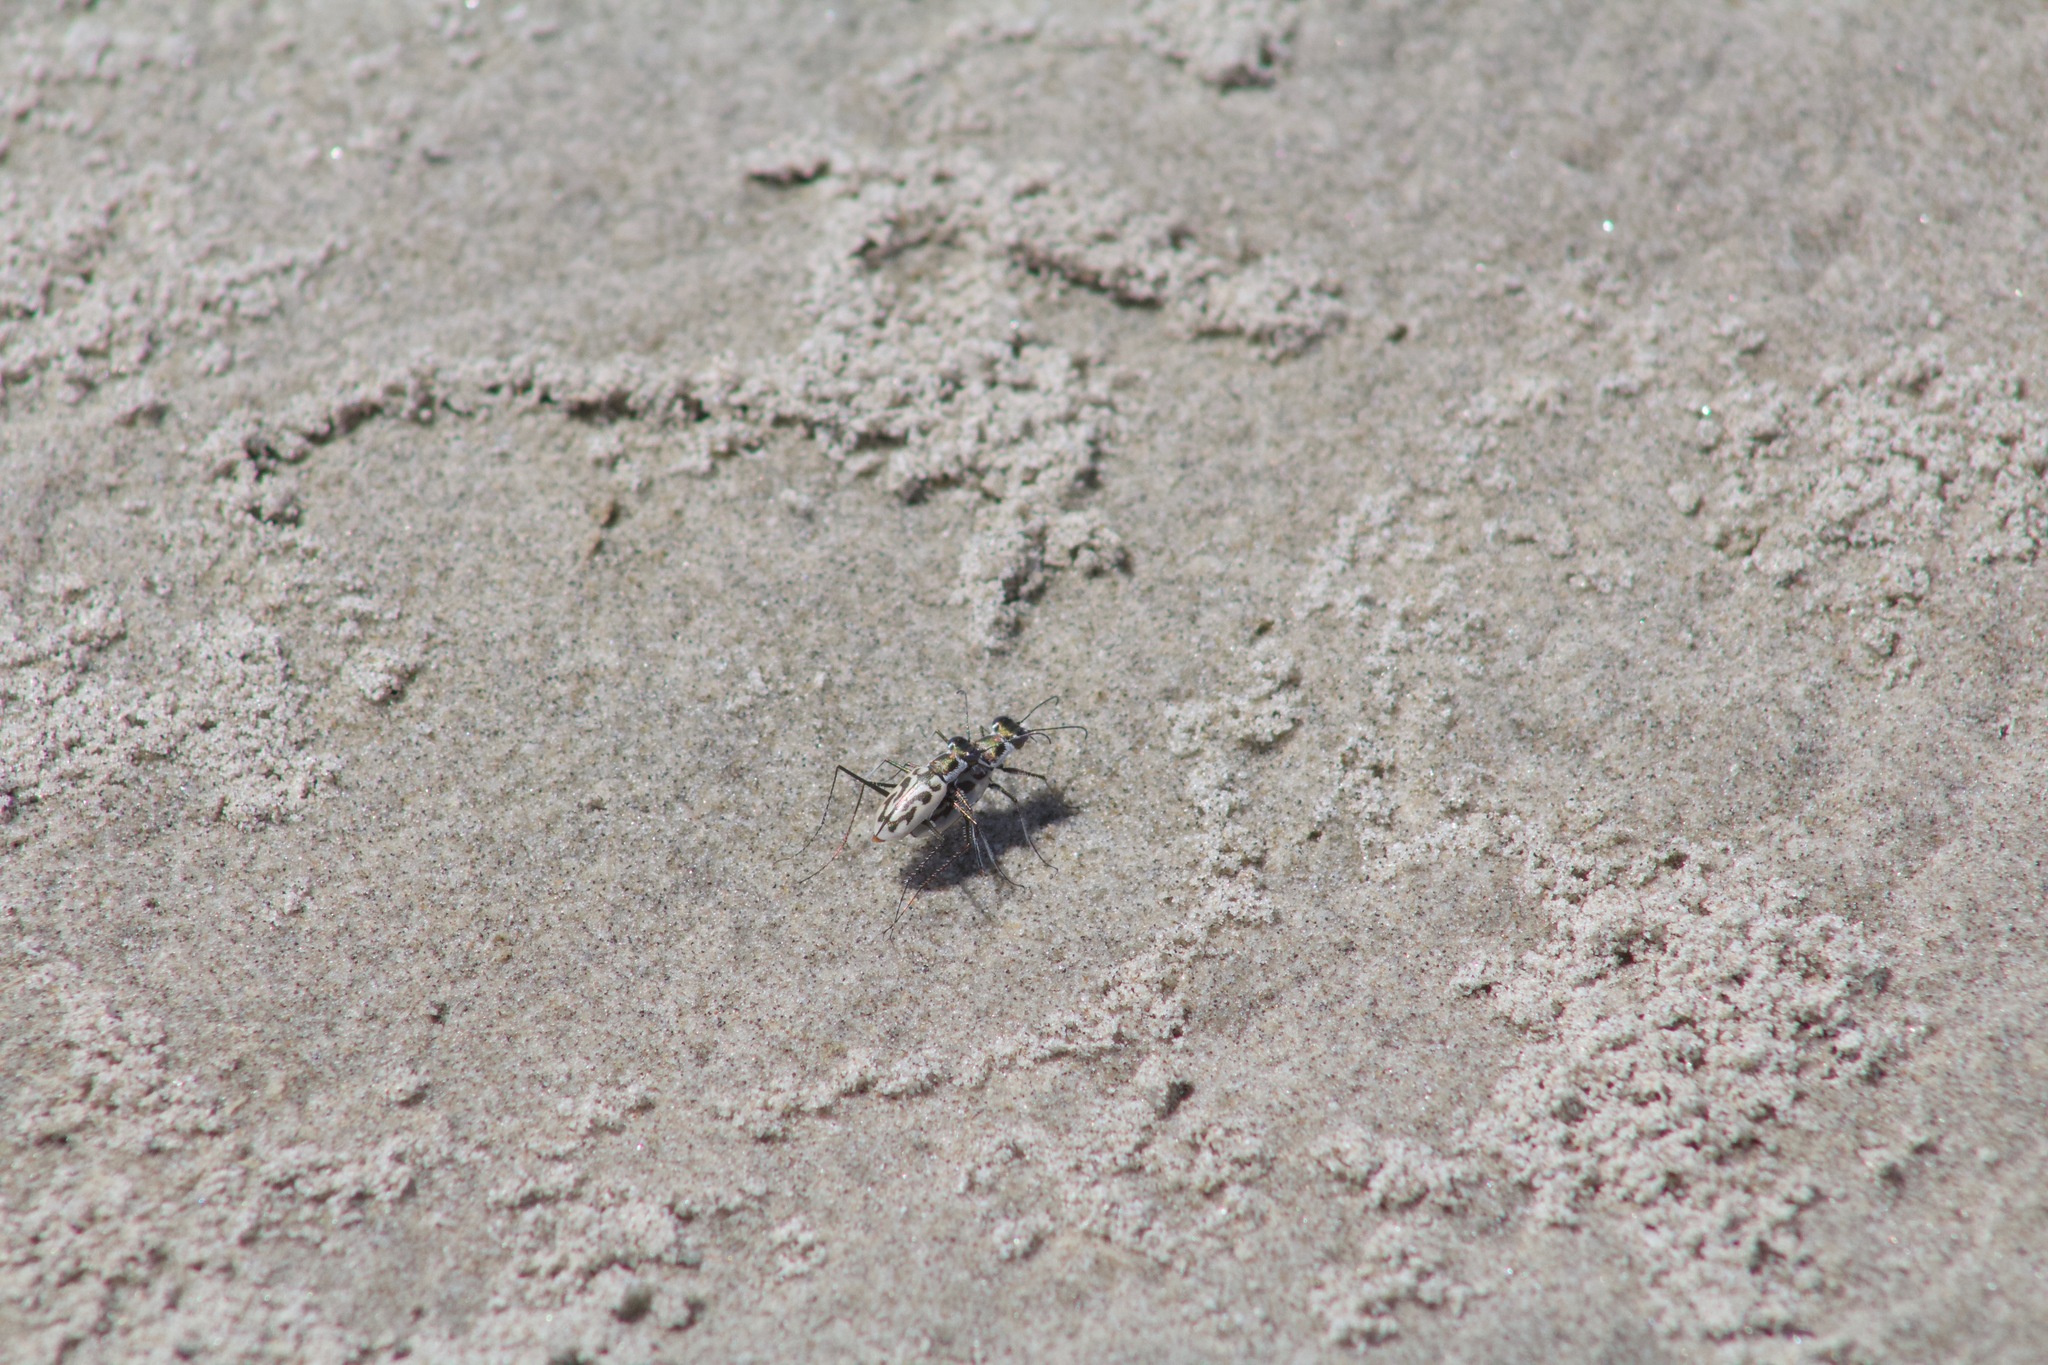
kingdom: Animalia
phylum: Arthropoda
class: Insecta
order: Coleoptera
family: Carabidae
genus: Habroscelimorpha
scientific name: Habroscelimorpha dorsalis
